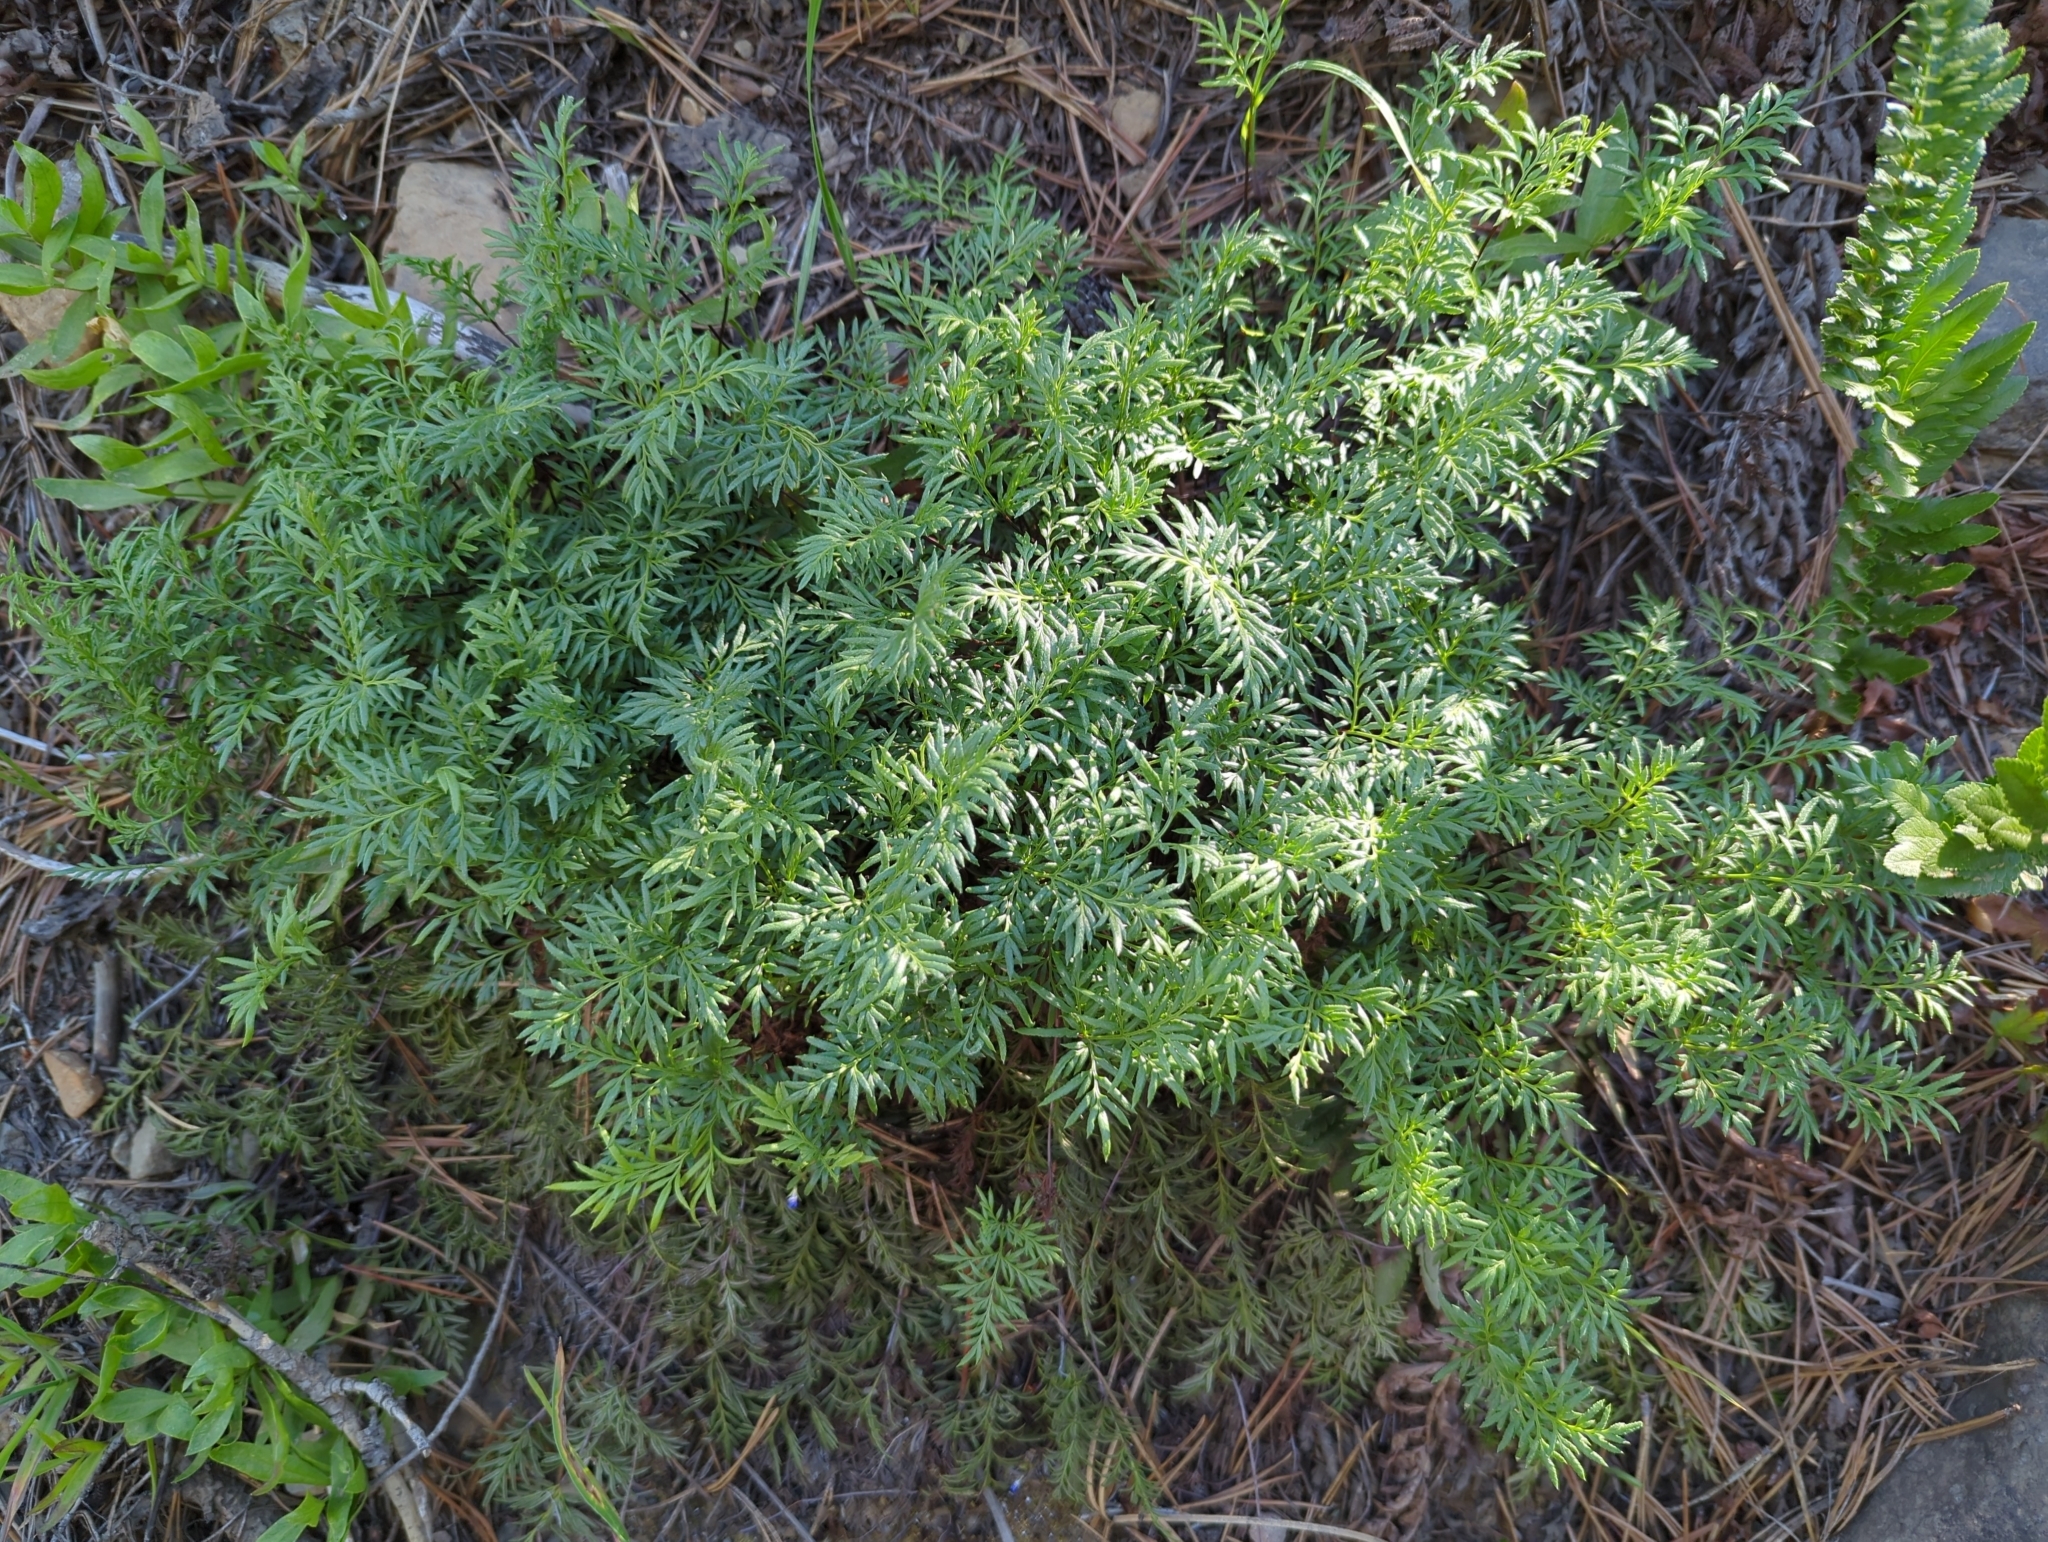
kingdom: Plantae
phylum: Tracheophyta
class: Polypodiopsida
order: Polypodiales
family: Pteridaceae
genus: Aspidotis
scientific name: Aspidotis densa
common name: Indian's dream
